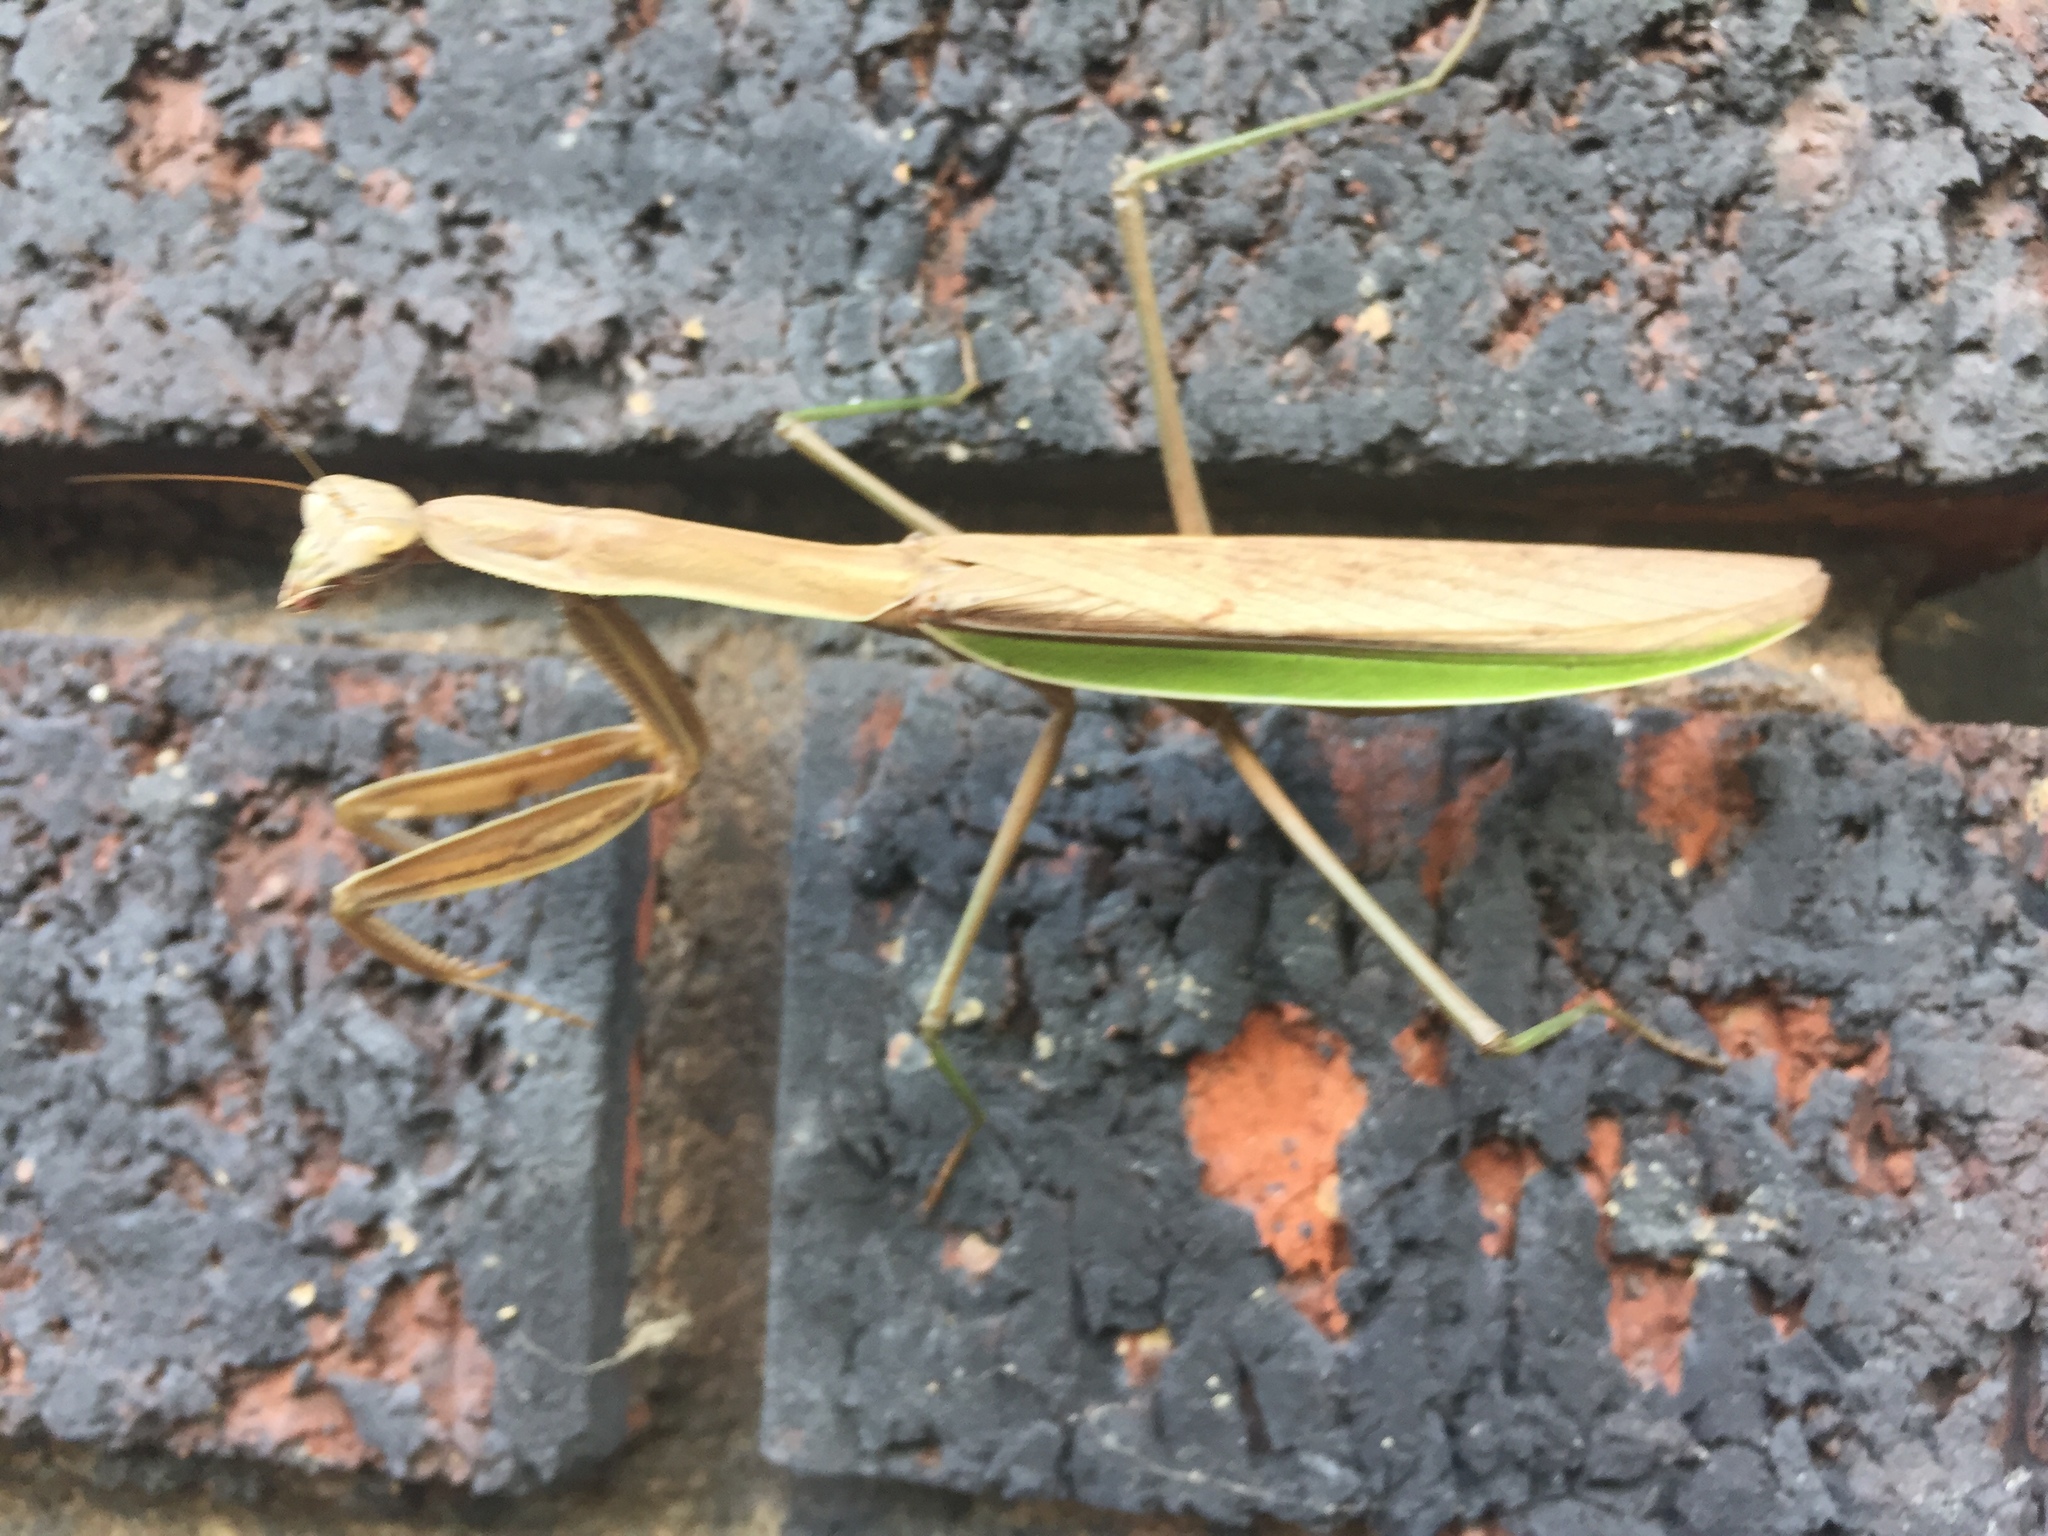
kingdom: Animalia
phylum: Arthropoda
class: Insecta
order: Mantodea
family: Mantidae
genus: Tenodera
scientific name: Tenodera sinensis
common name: Chinese mantis
